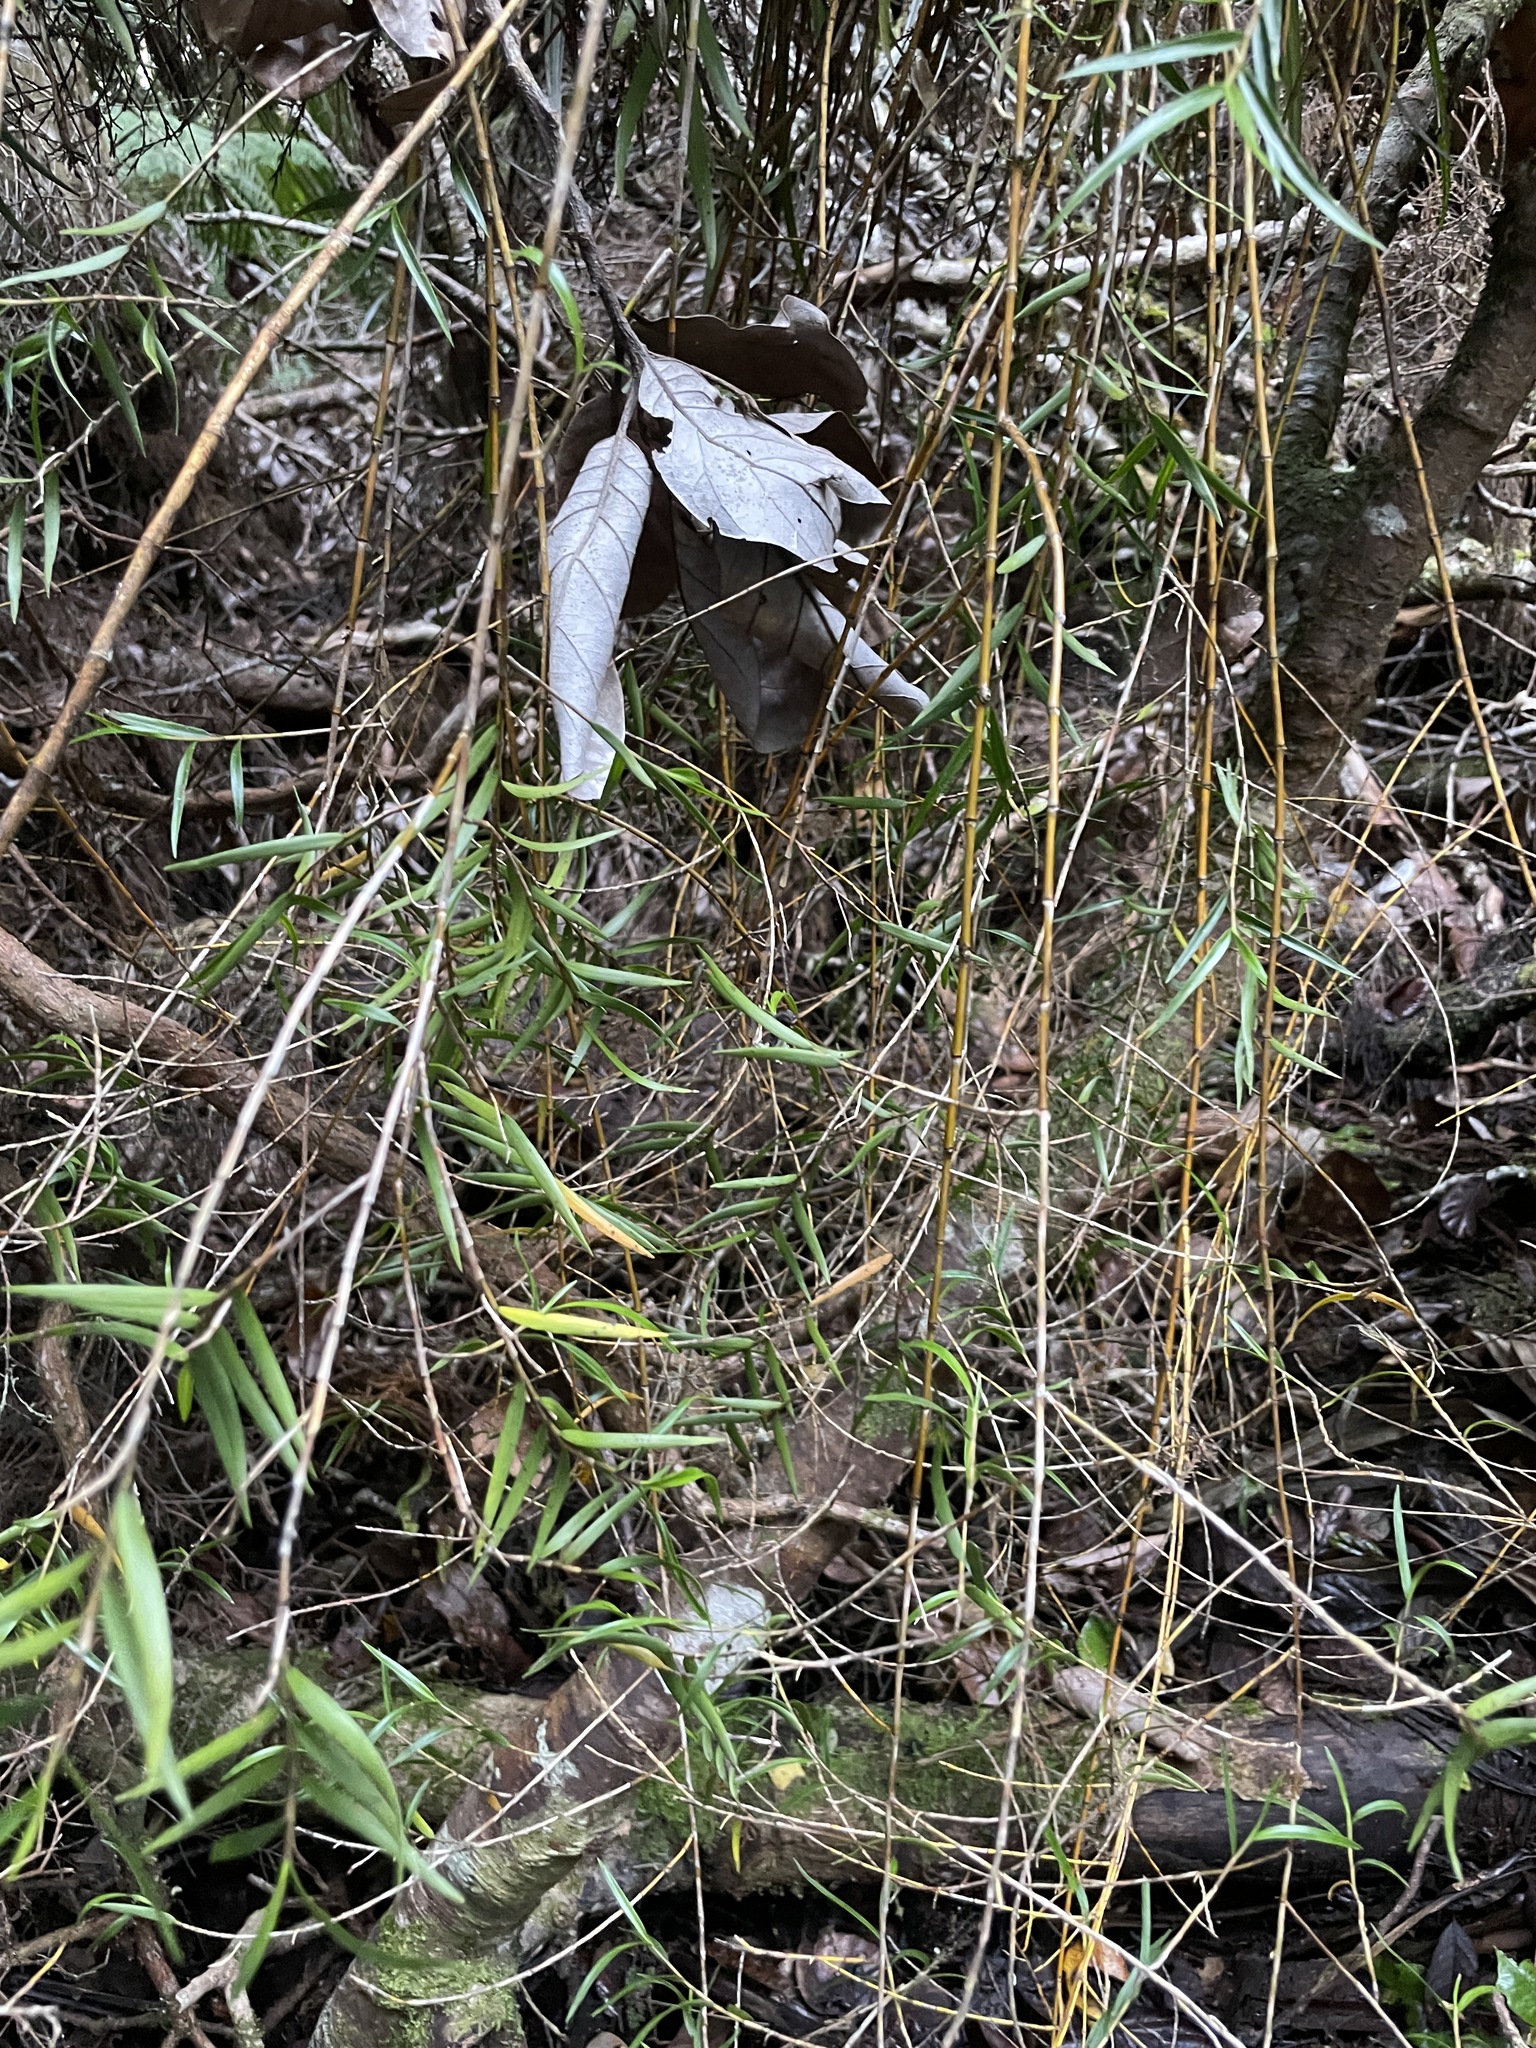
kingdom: Plantae
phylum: Tracheophyta
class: Liliopsida
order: Asparagales
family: Orchidaceae
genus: Dendrobium
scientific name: Dendrobium cunninghamii
